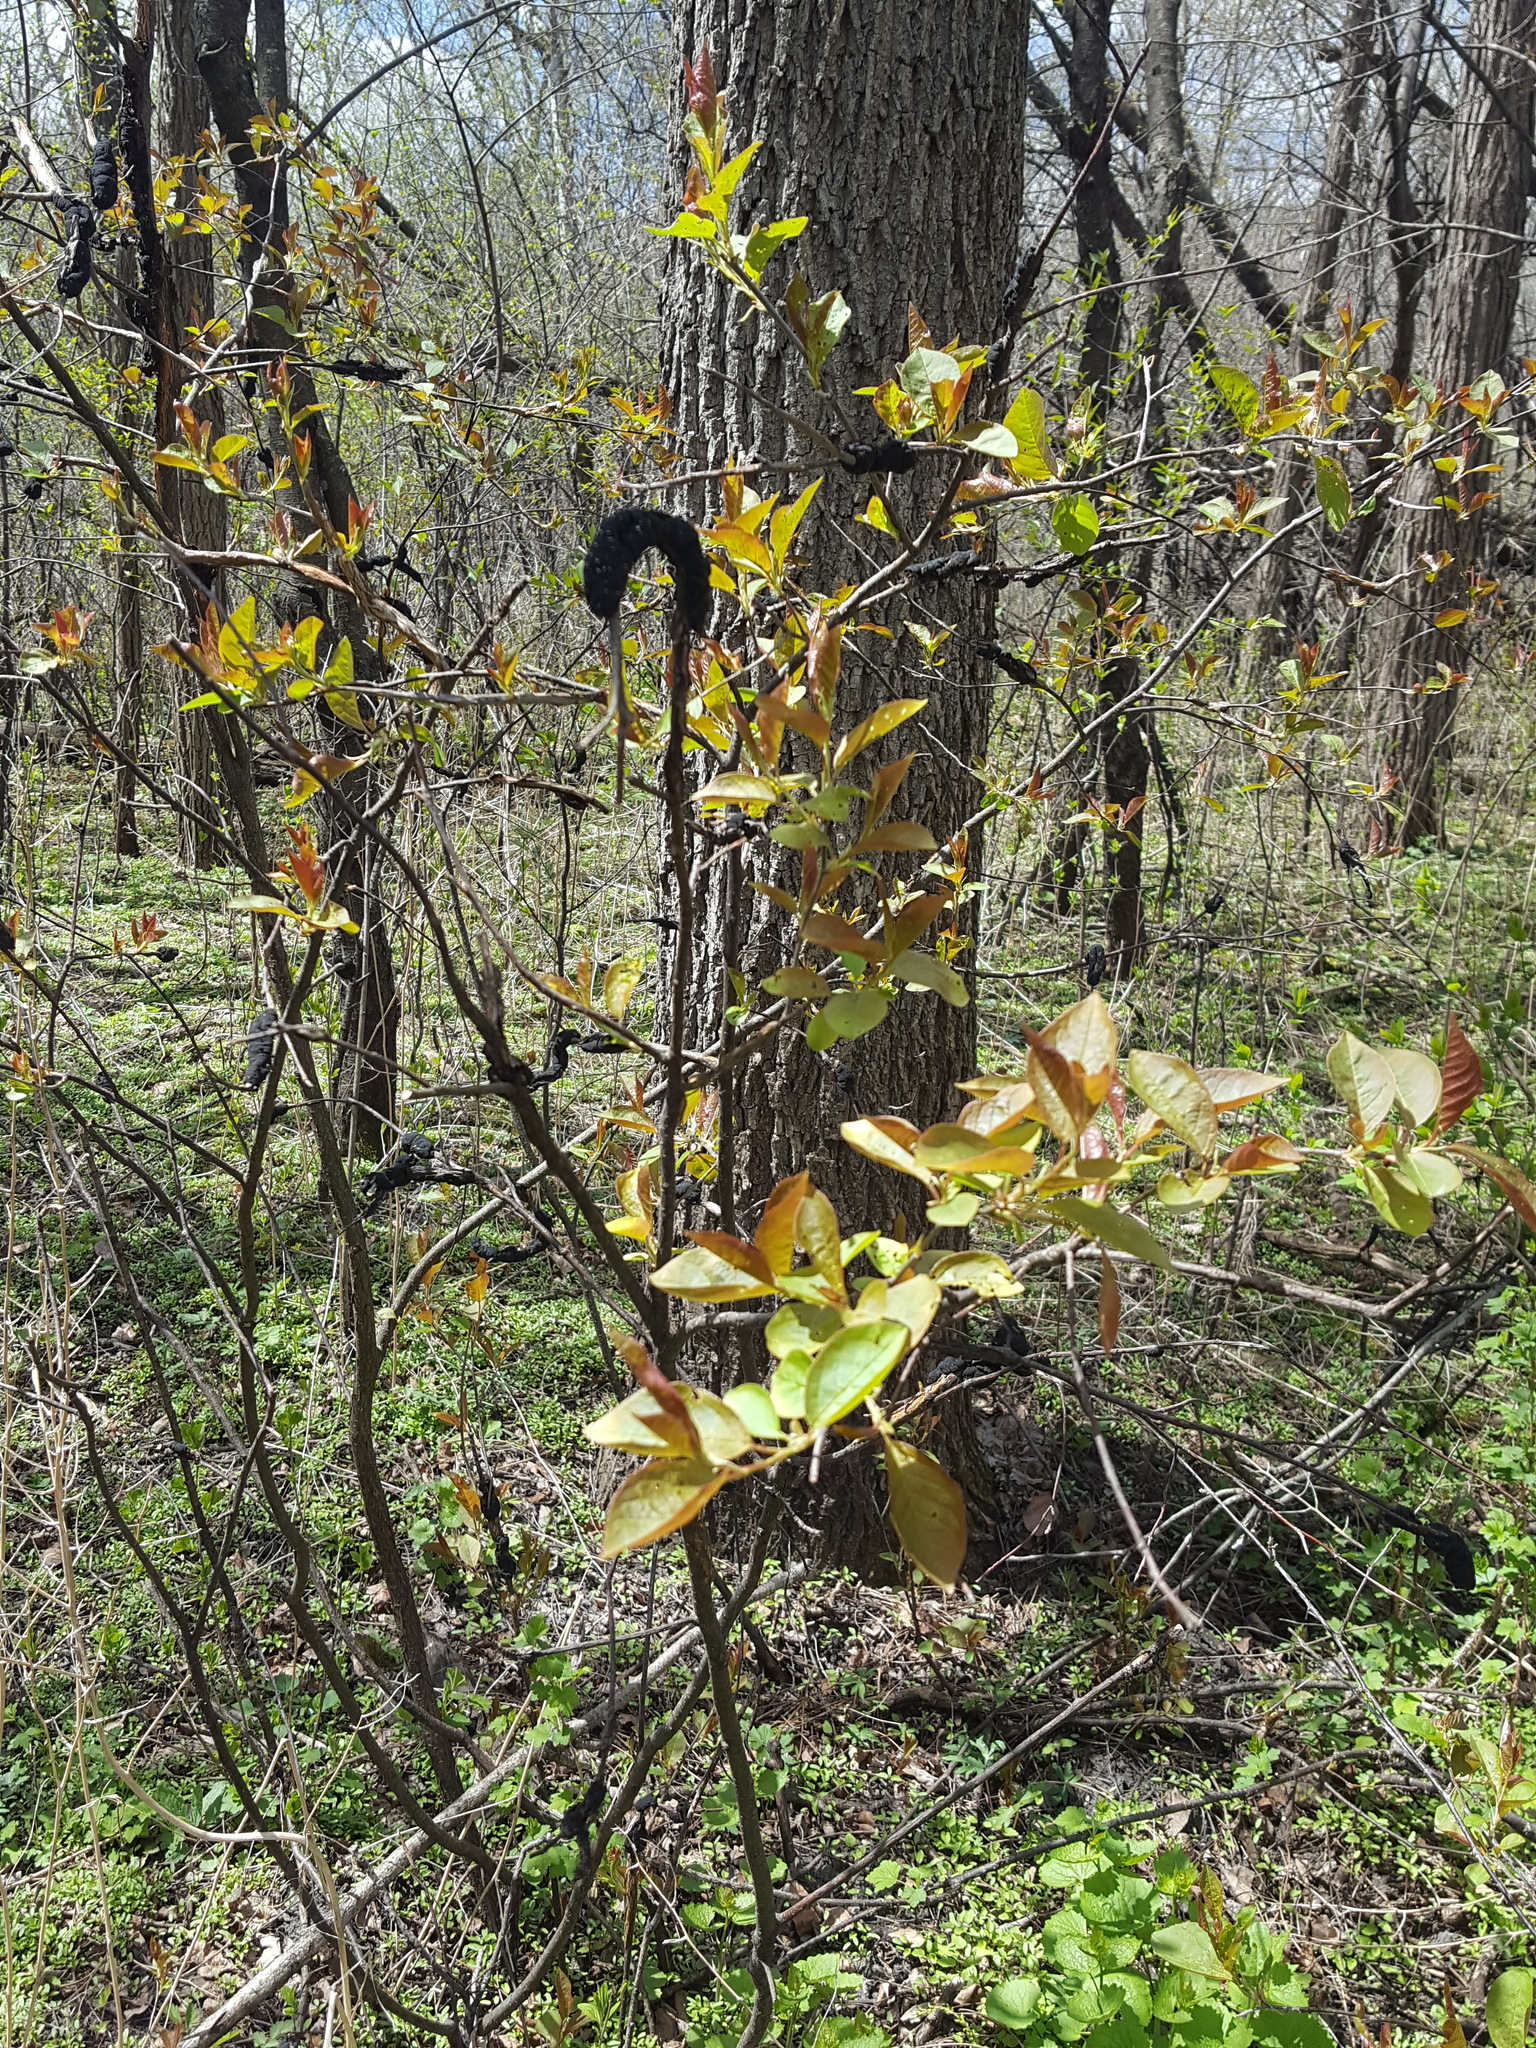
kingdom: Fungi
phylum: Ascomycota
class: Dothideomycetes
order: Venturiales
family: Venturiaceae
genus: Apiosporina
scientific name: Apiosporina morbosa
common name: Black knot
